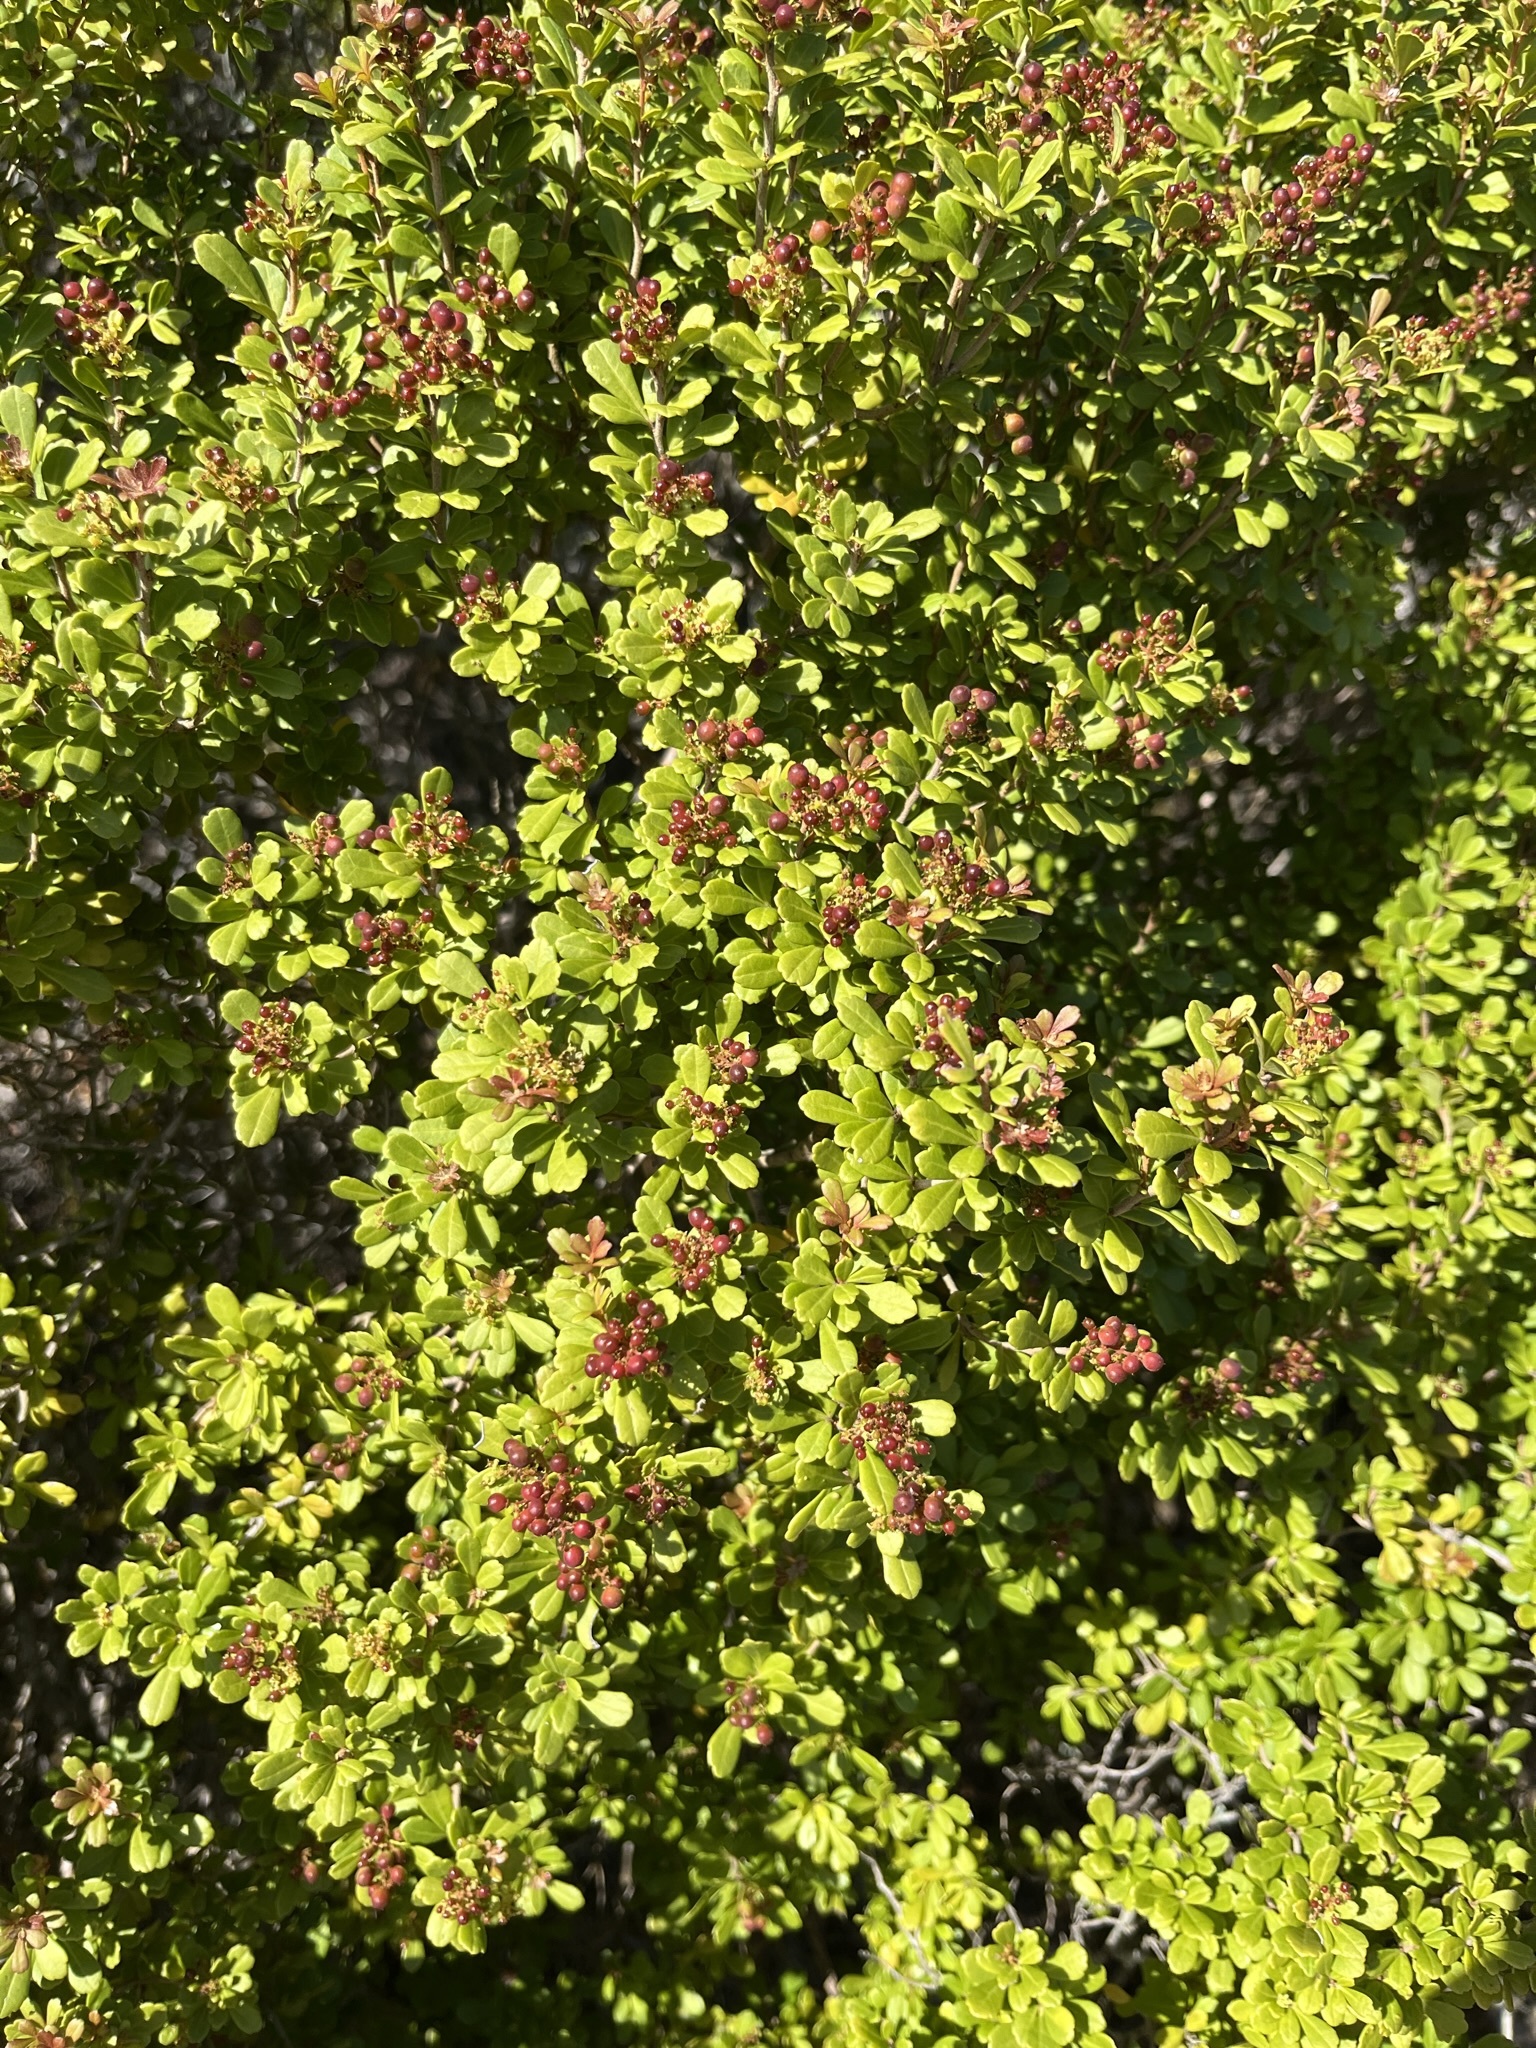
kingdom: Plantae
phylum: Tracheophyta
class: Magnoliopsida
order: Sapindales
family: Anacardiaceae
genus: Searsia
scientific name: Searsia crenata
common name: Crowberry
